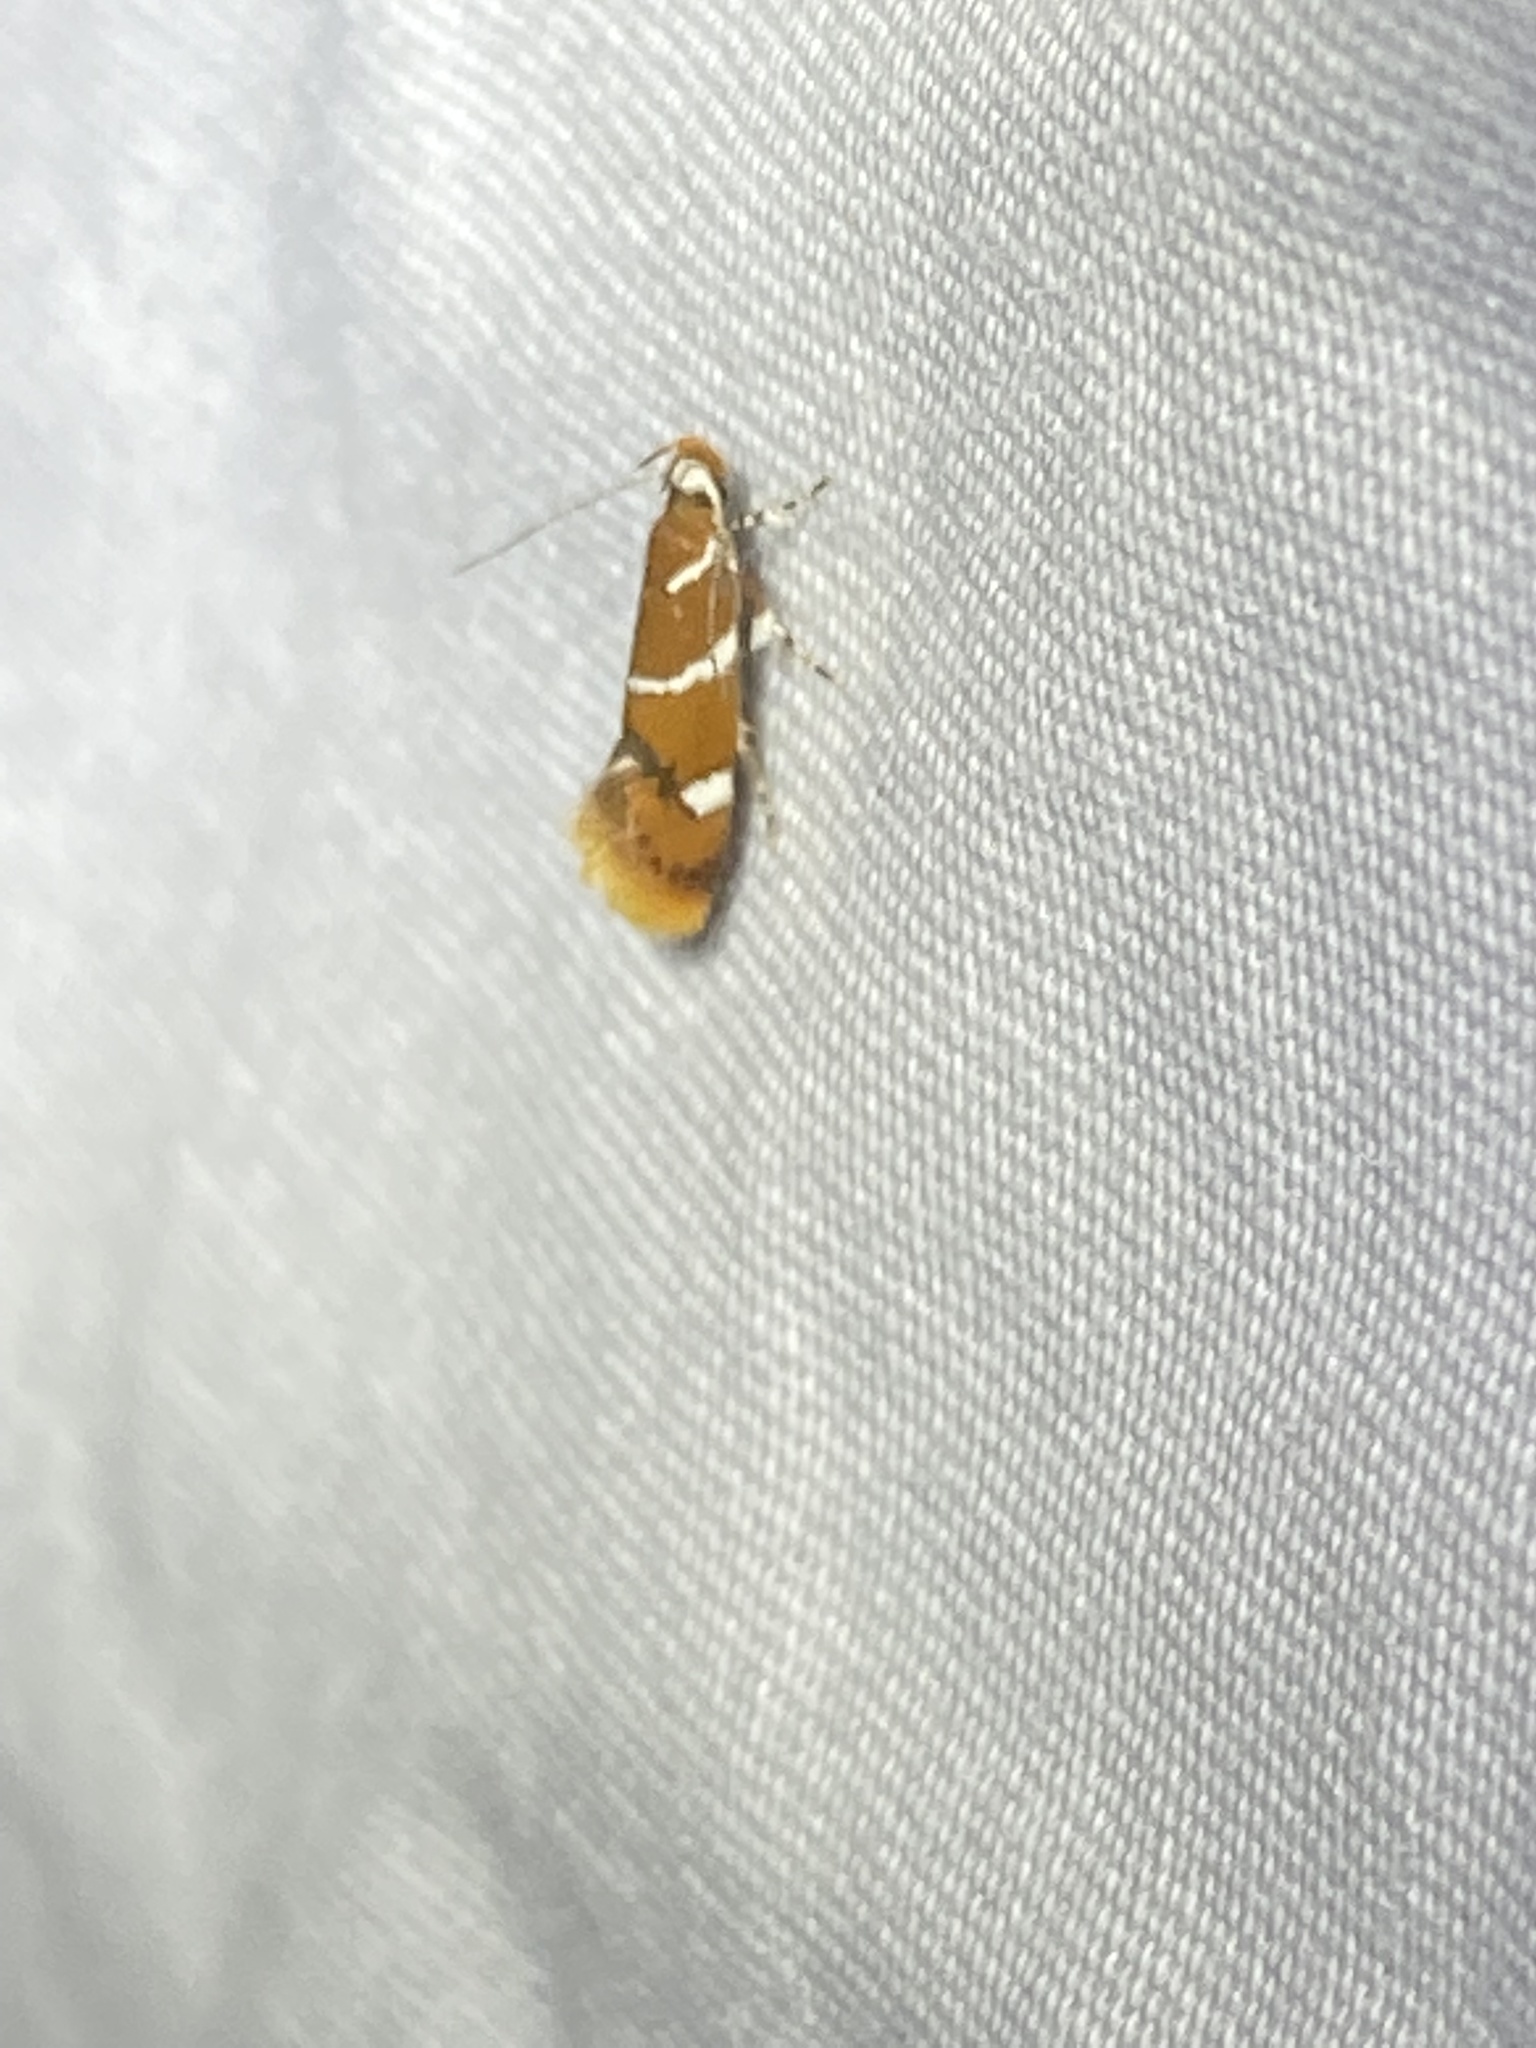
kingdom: Animalia
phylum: Arthropoda
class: Insecta
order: Lepidoptera
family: Oecophoridae
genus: Promalactis
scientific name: Promalactis suzukiella
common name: Moth
